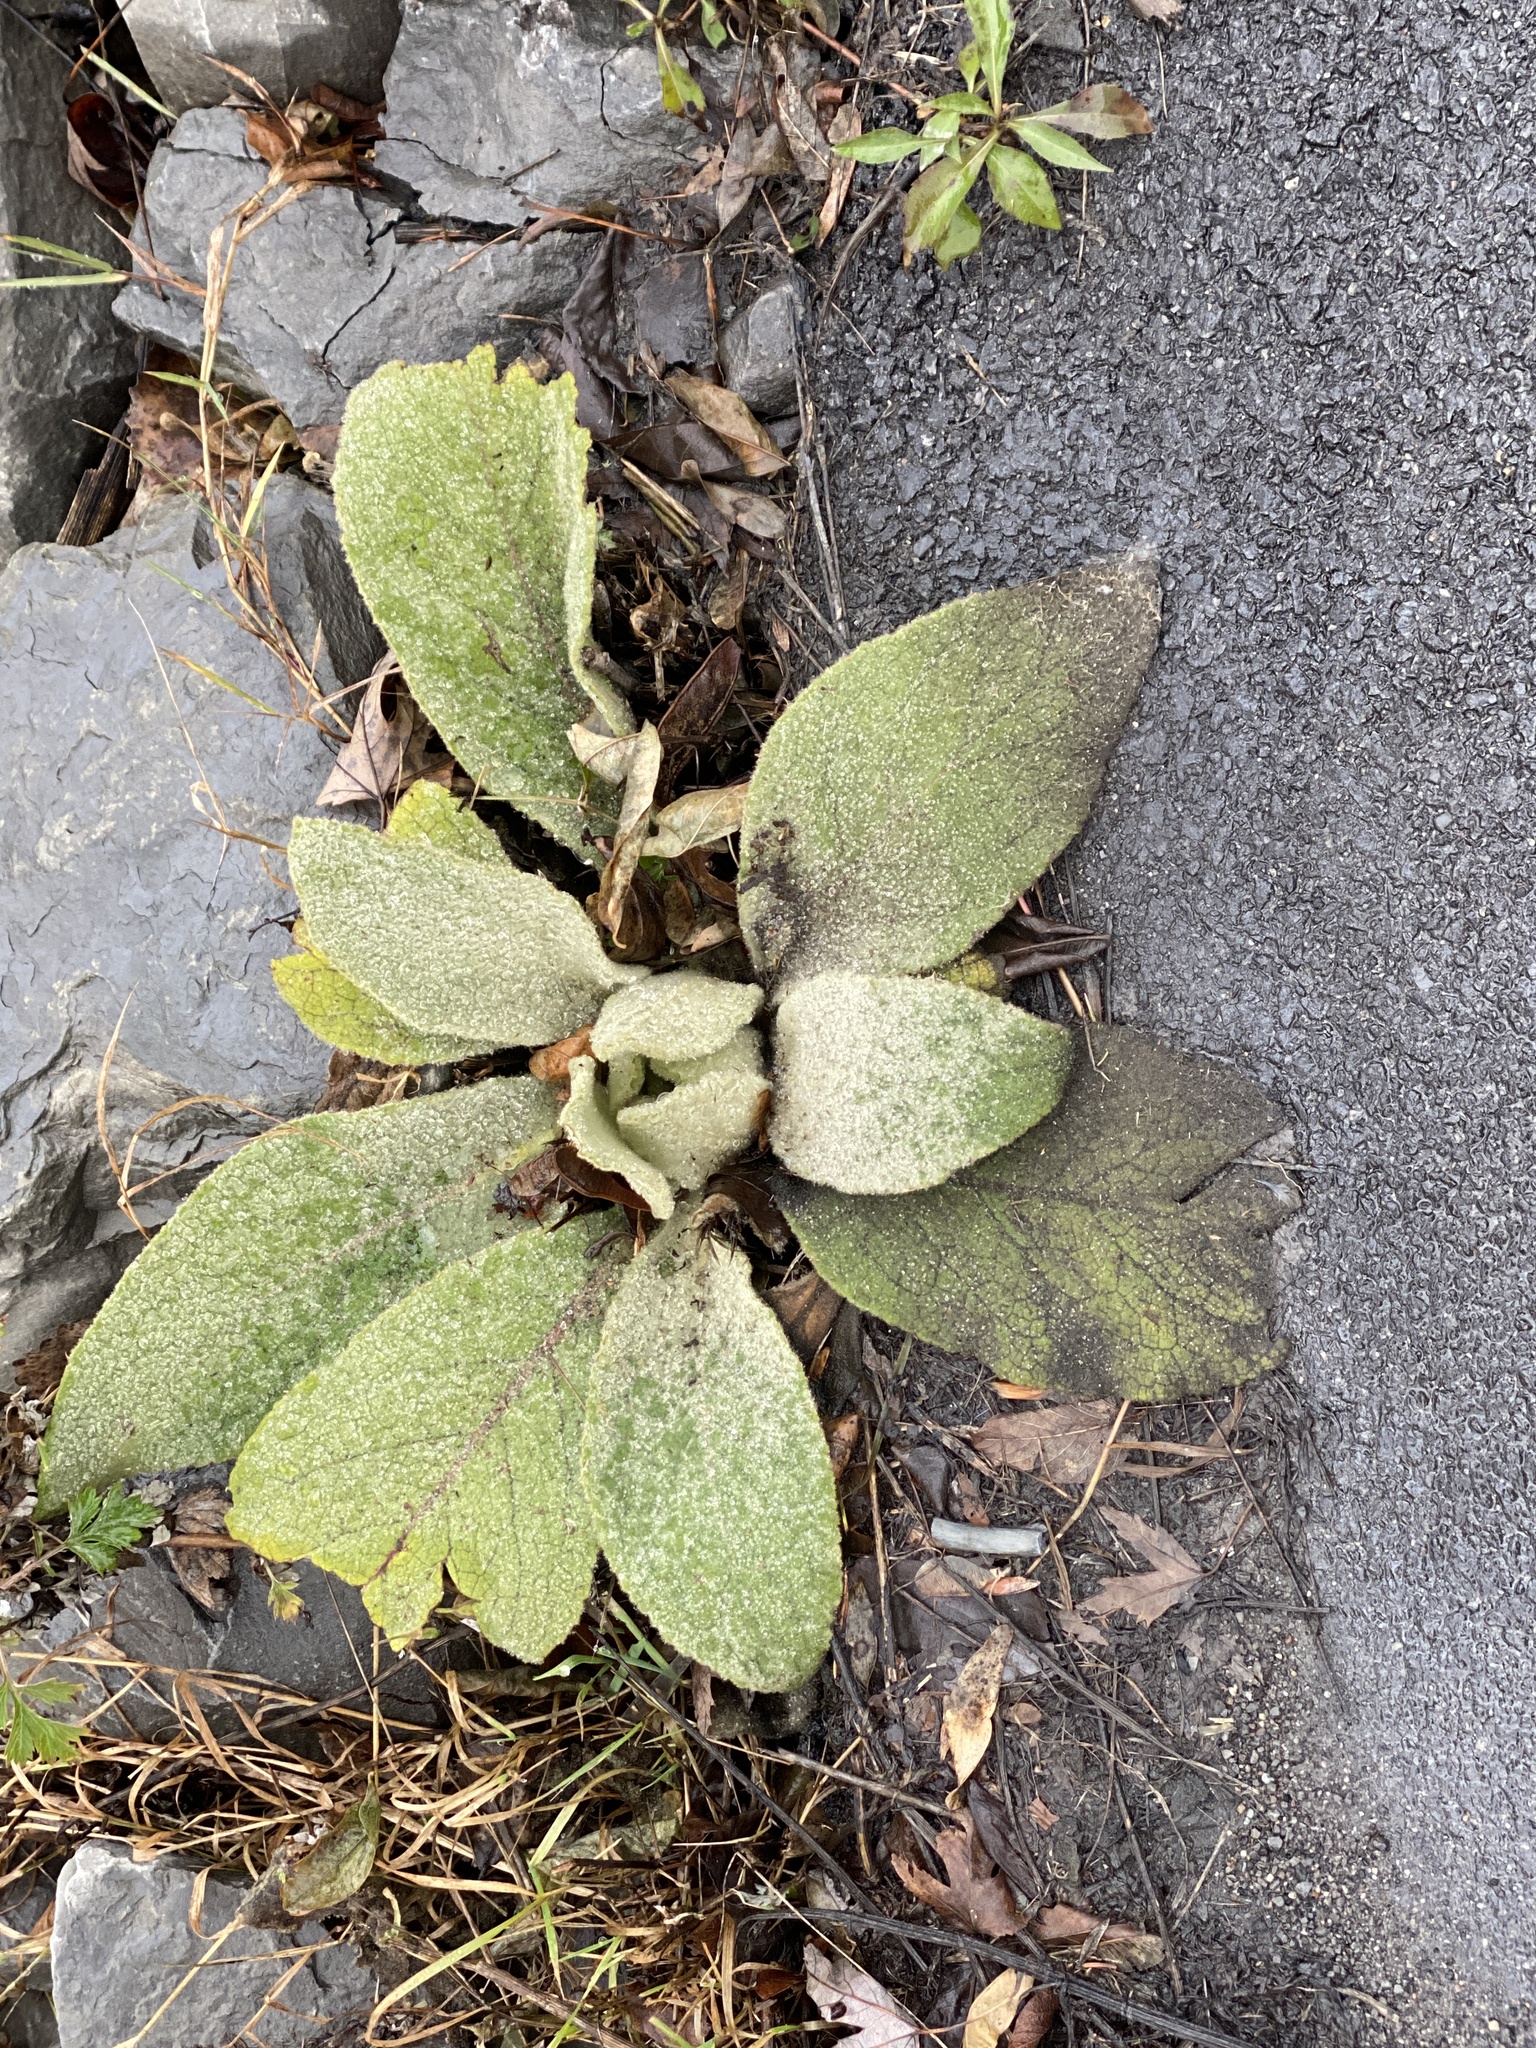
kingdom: Plantae
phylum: Tracheophyta
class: Magnoliopsida
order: Lamiales
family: Scrophulariaceae
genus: Verbascum
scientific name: Verbascum thapsus
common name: Common mullein
